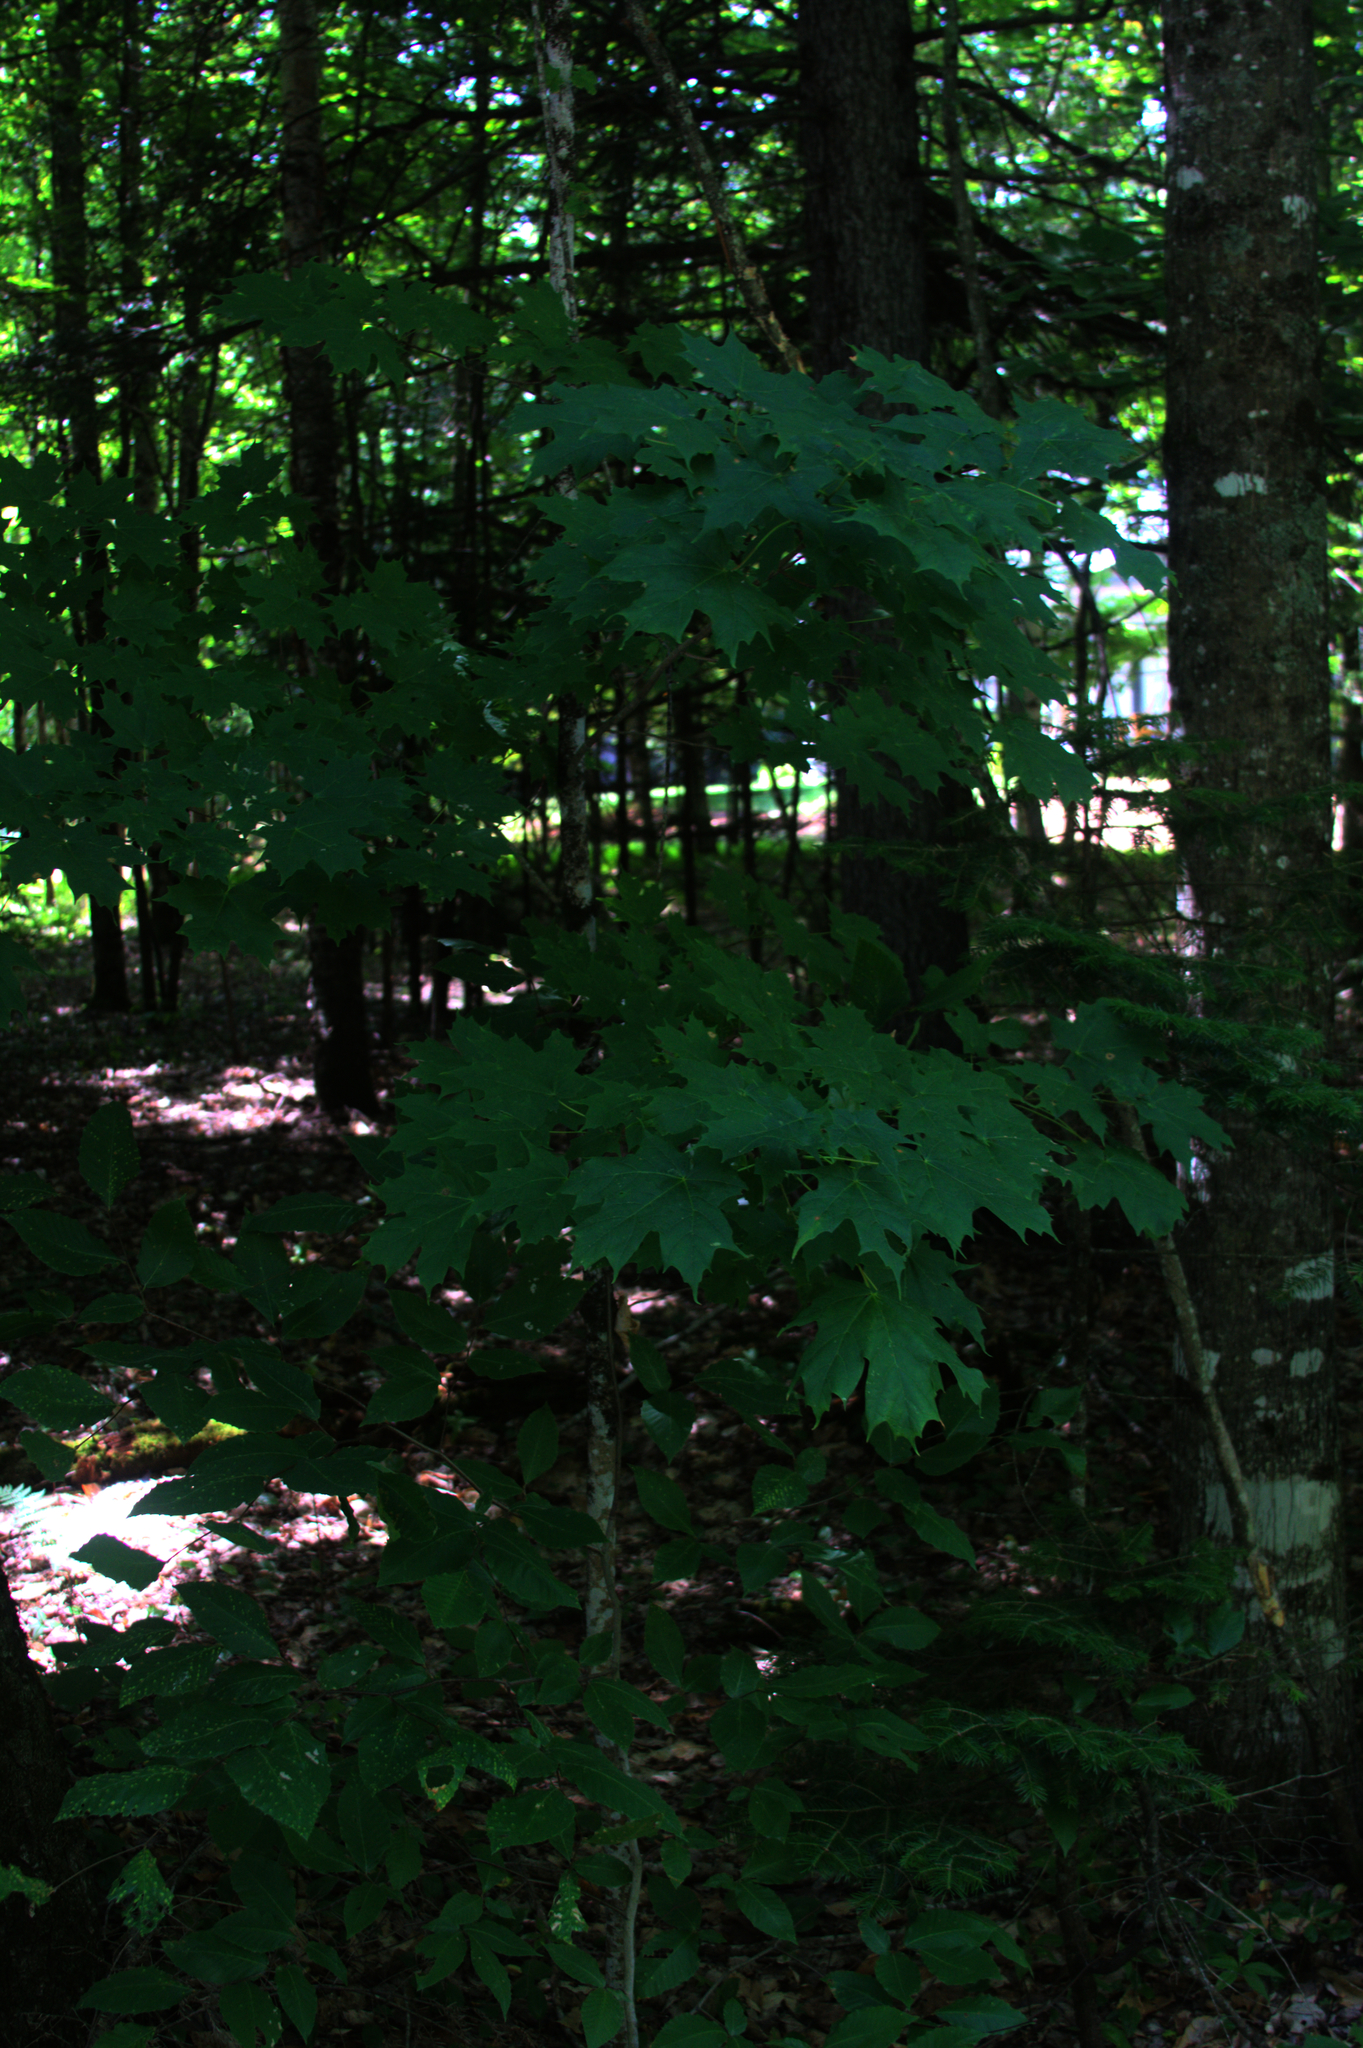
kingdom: Plantae
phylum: Tracheophyta
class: Magnoliopsida
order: Sapindales
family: Sapindaceae
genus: Acer
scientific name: Acer saccharum
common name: Sugar maple
